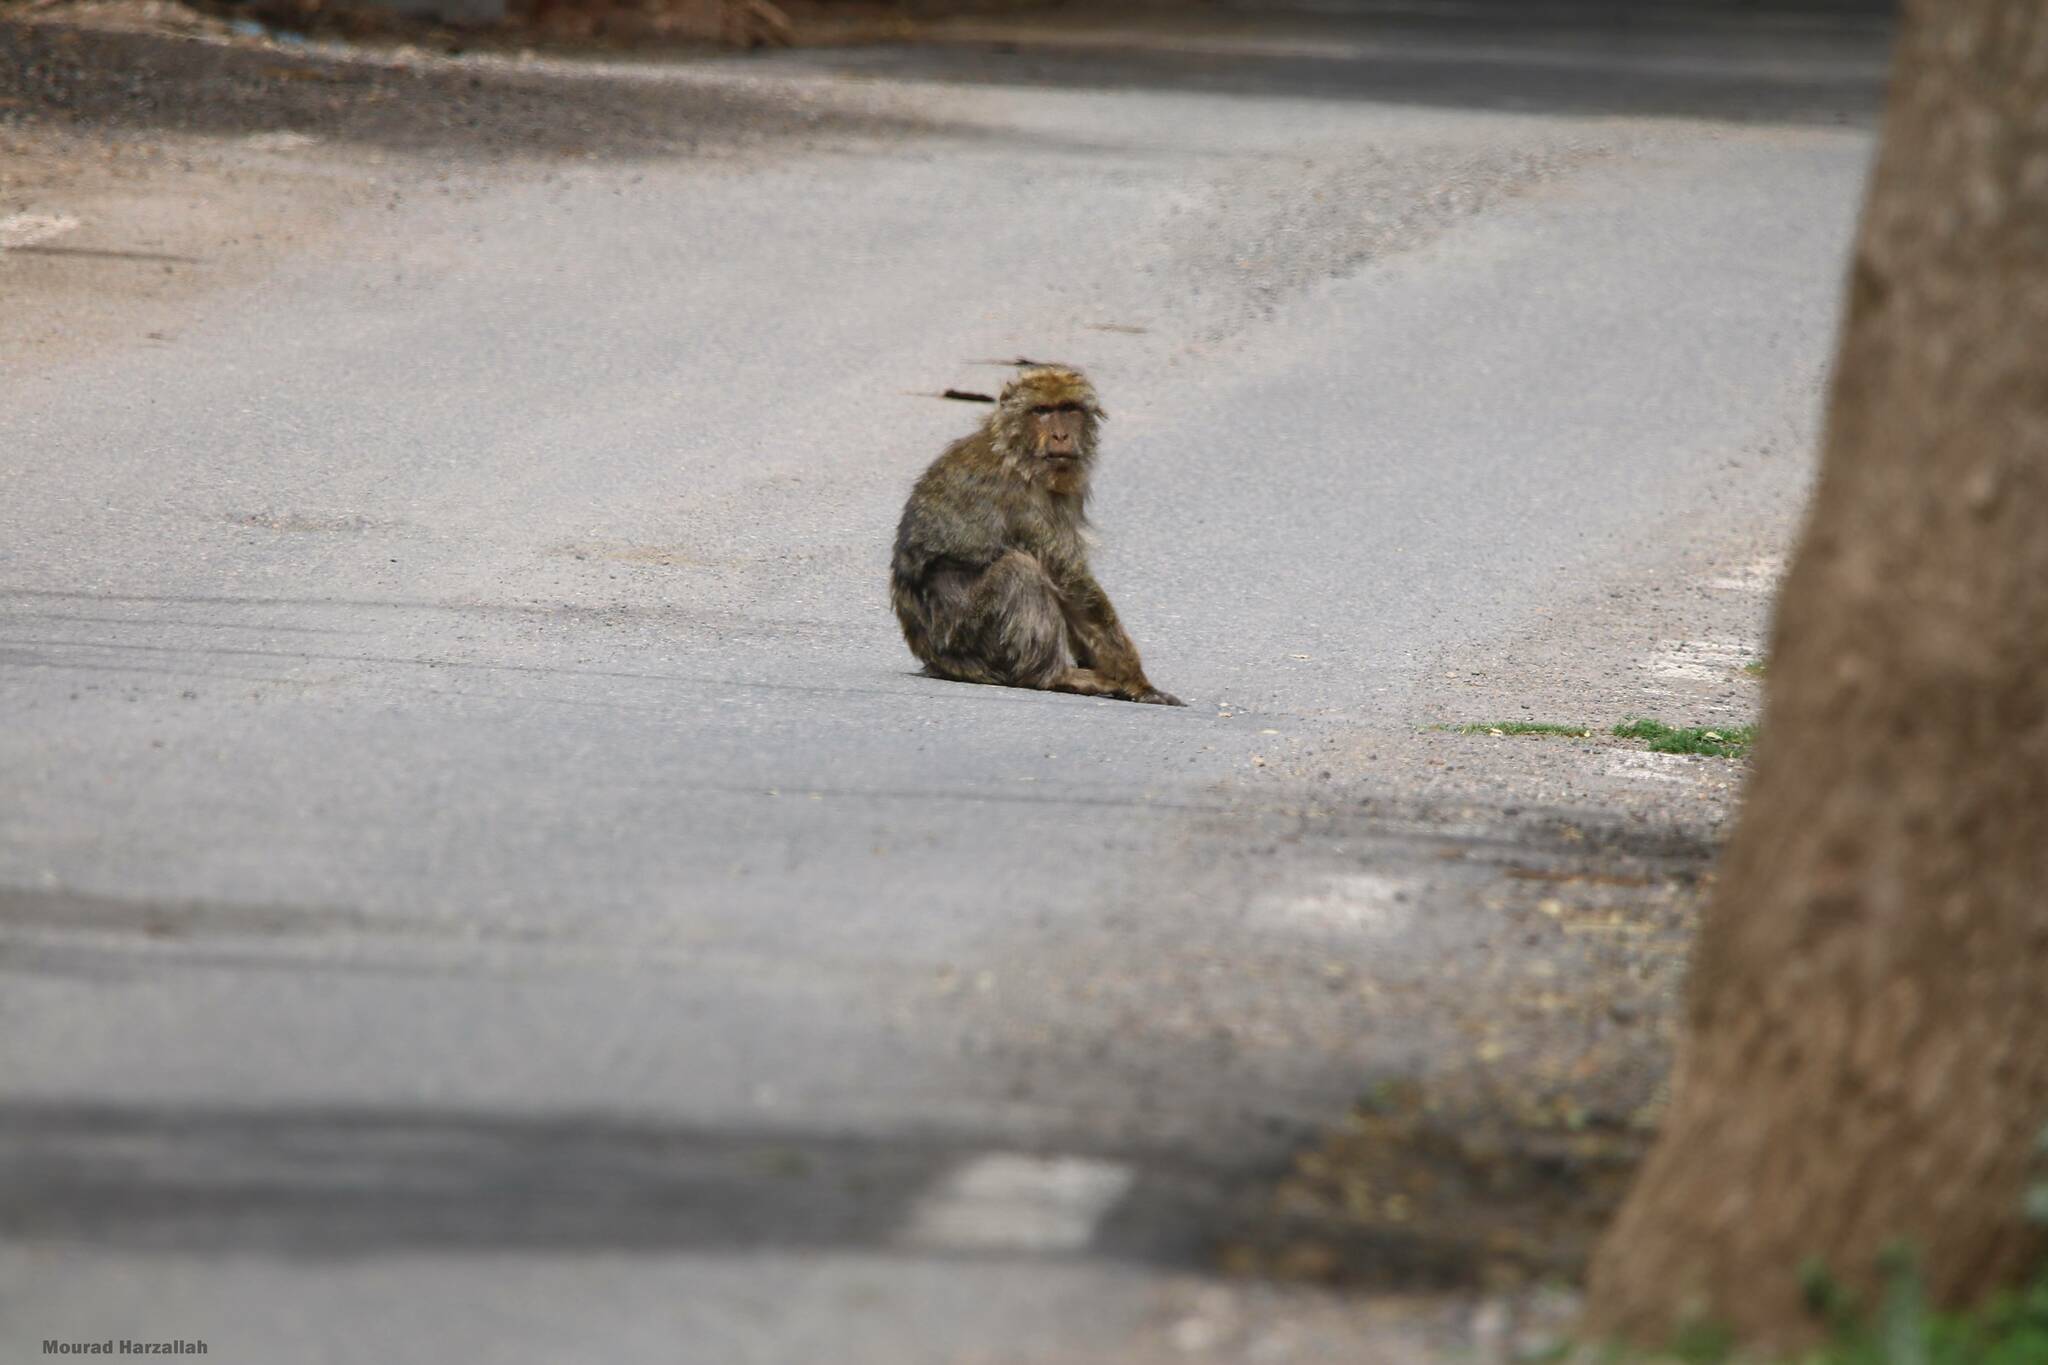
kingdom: Animalia
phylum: Chordata
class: Mammalia
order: Primates
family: Cercopithecidae
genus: Macaca
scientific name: Macaca sylvanus
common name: Barbary macaque
